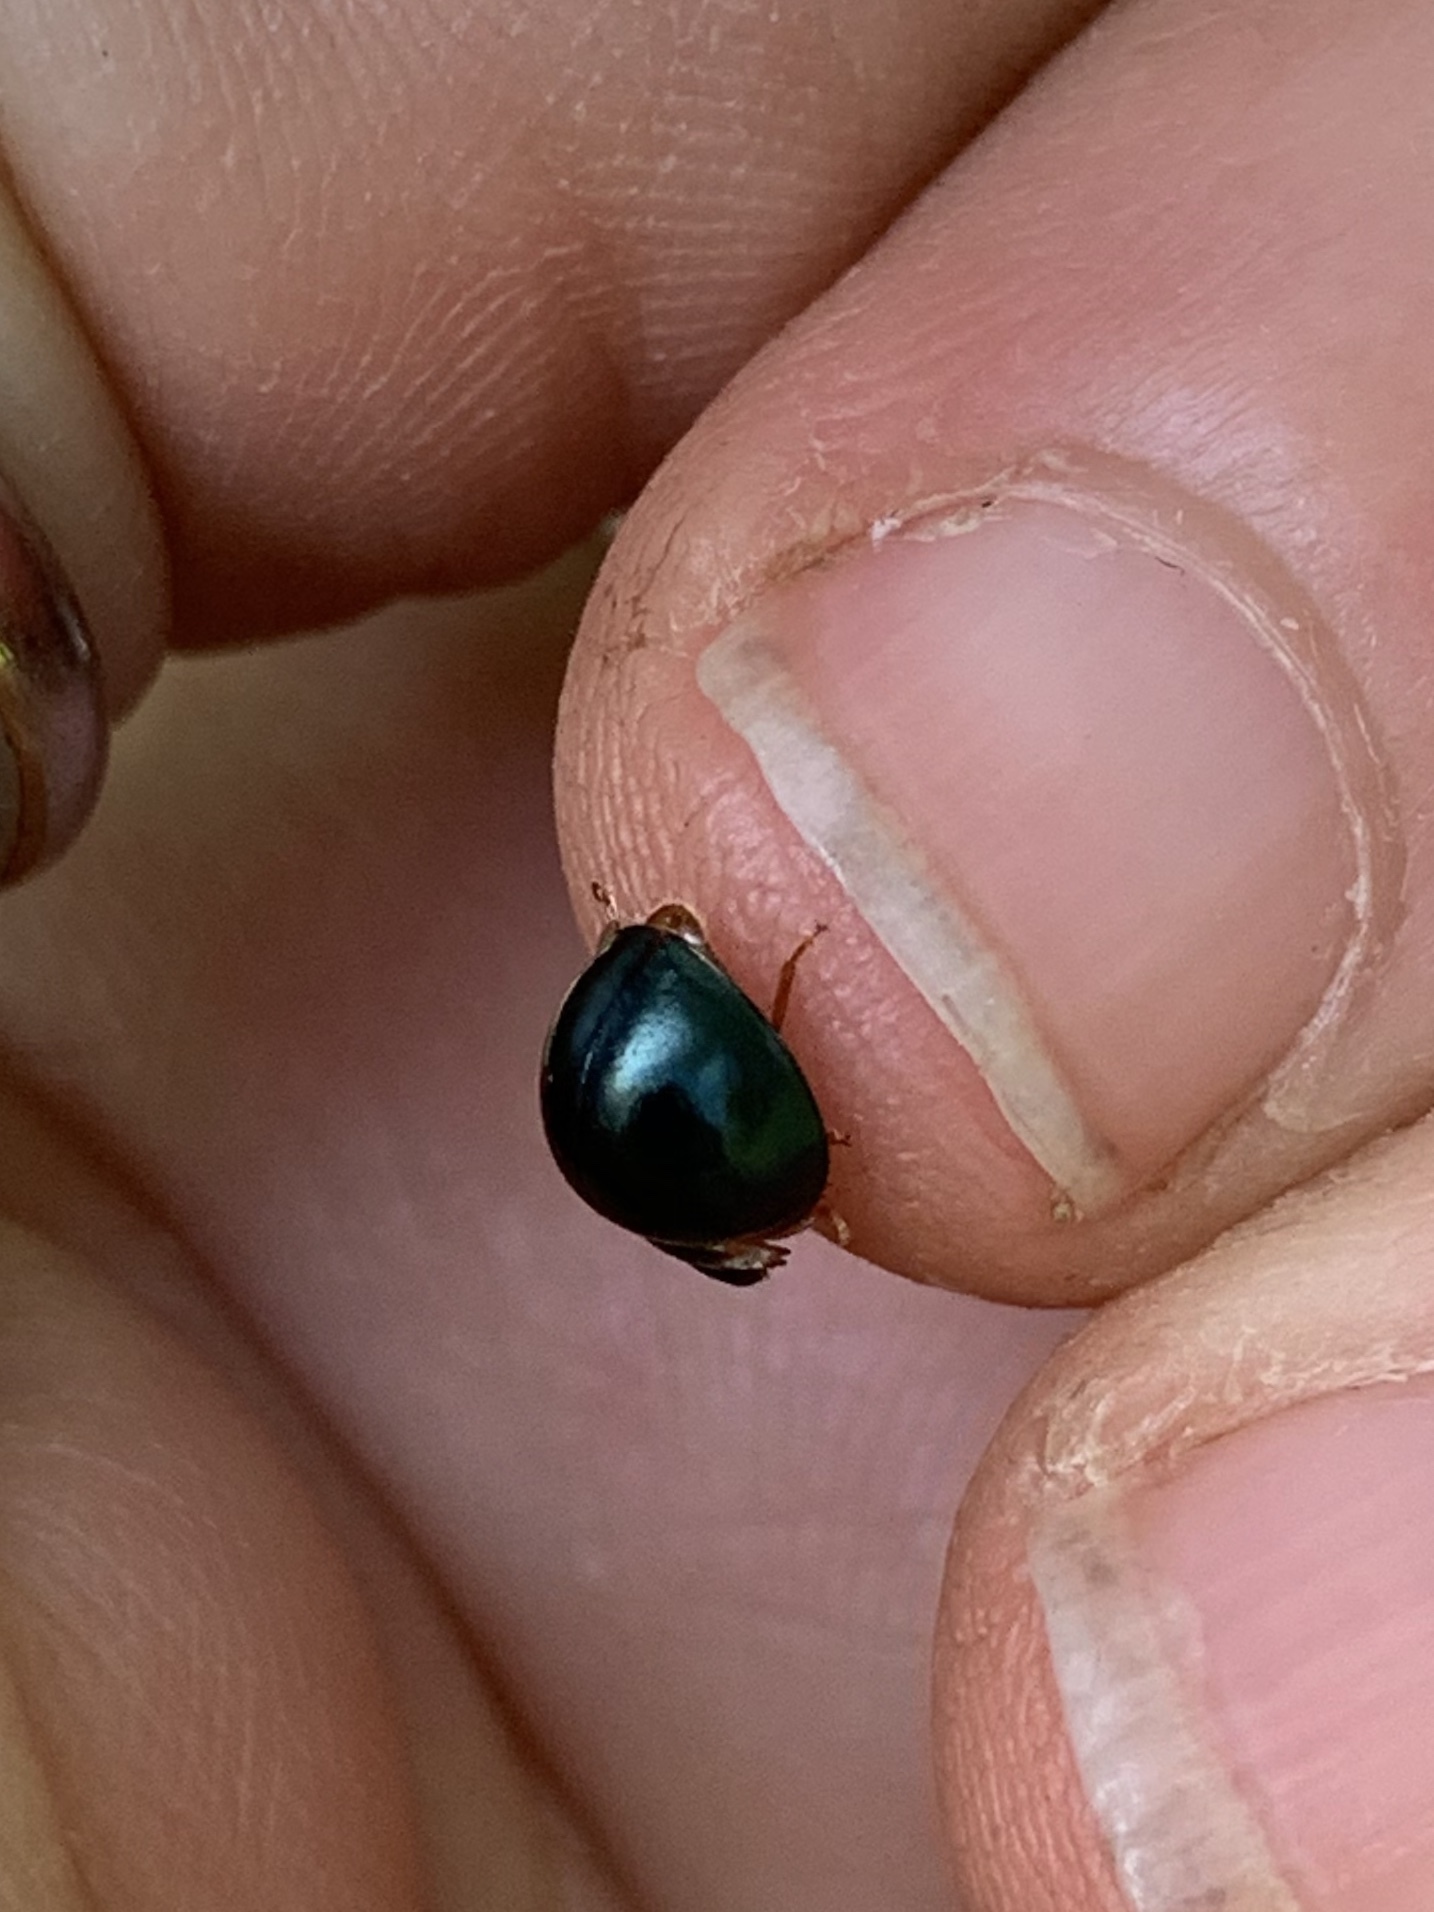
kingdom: Animalia
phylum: Arthropoda
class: Insecta
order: Coleoptera
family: Coccinellidae
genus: Curinus
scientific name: Curinus coeruleus
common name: Ladybird beetle
